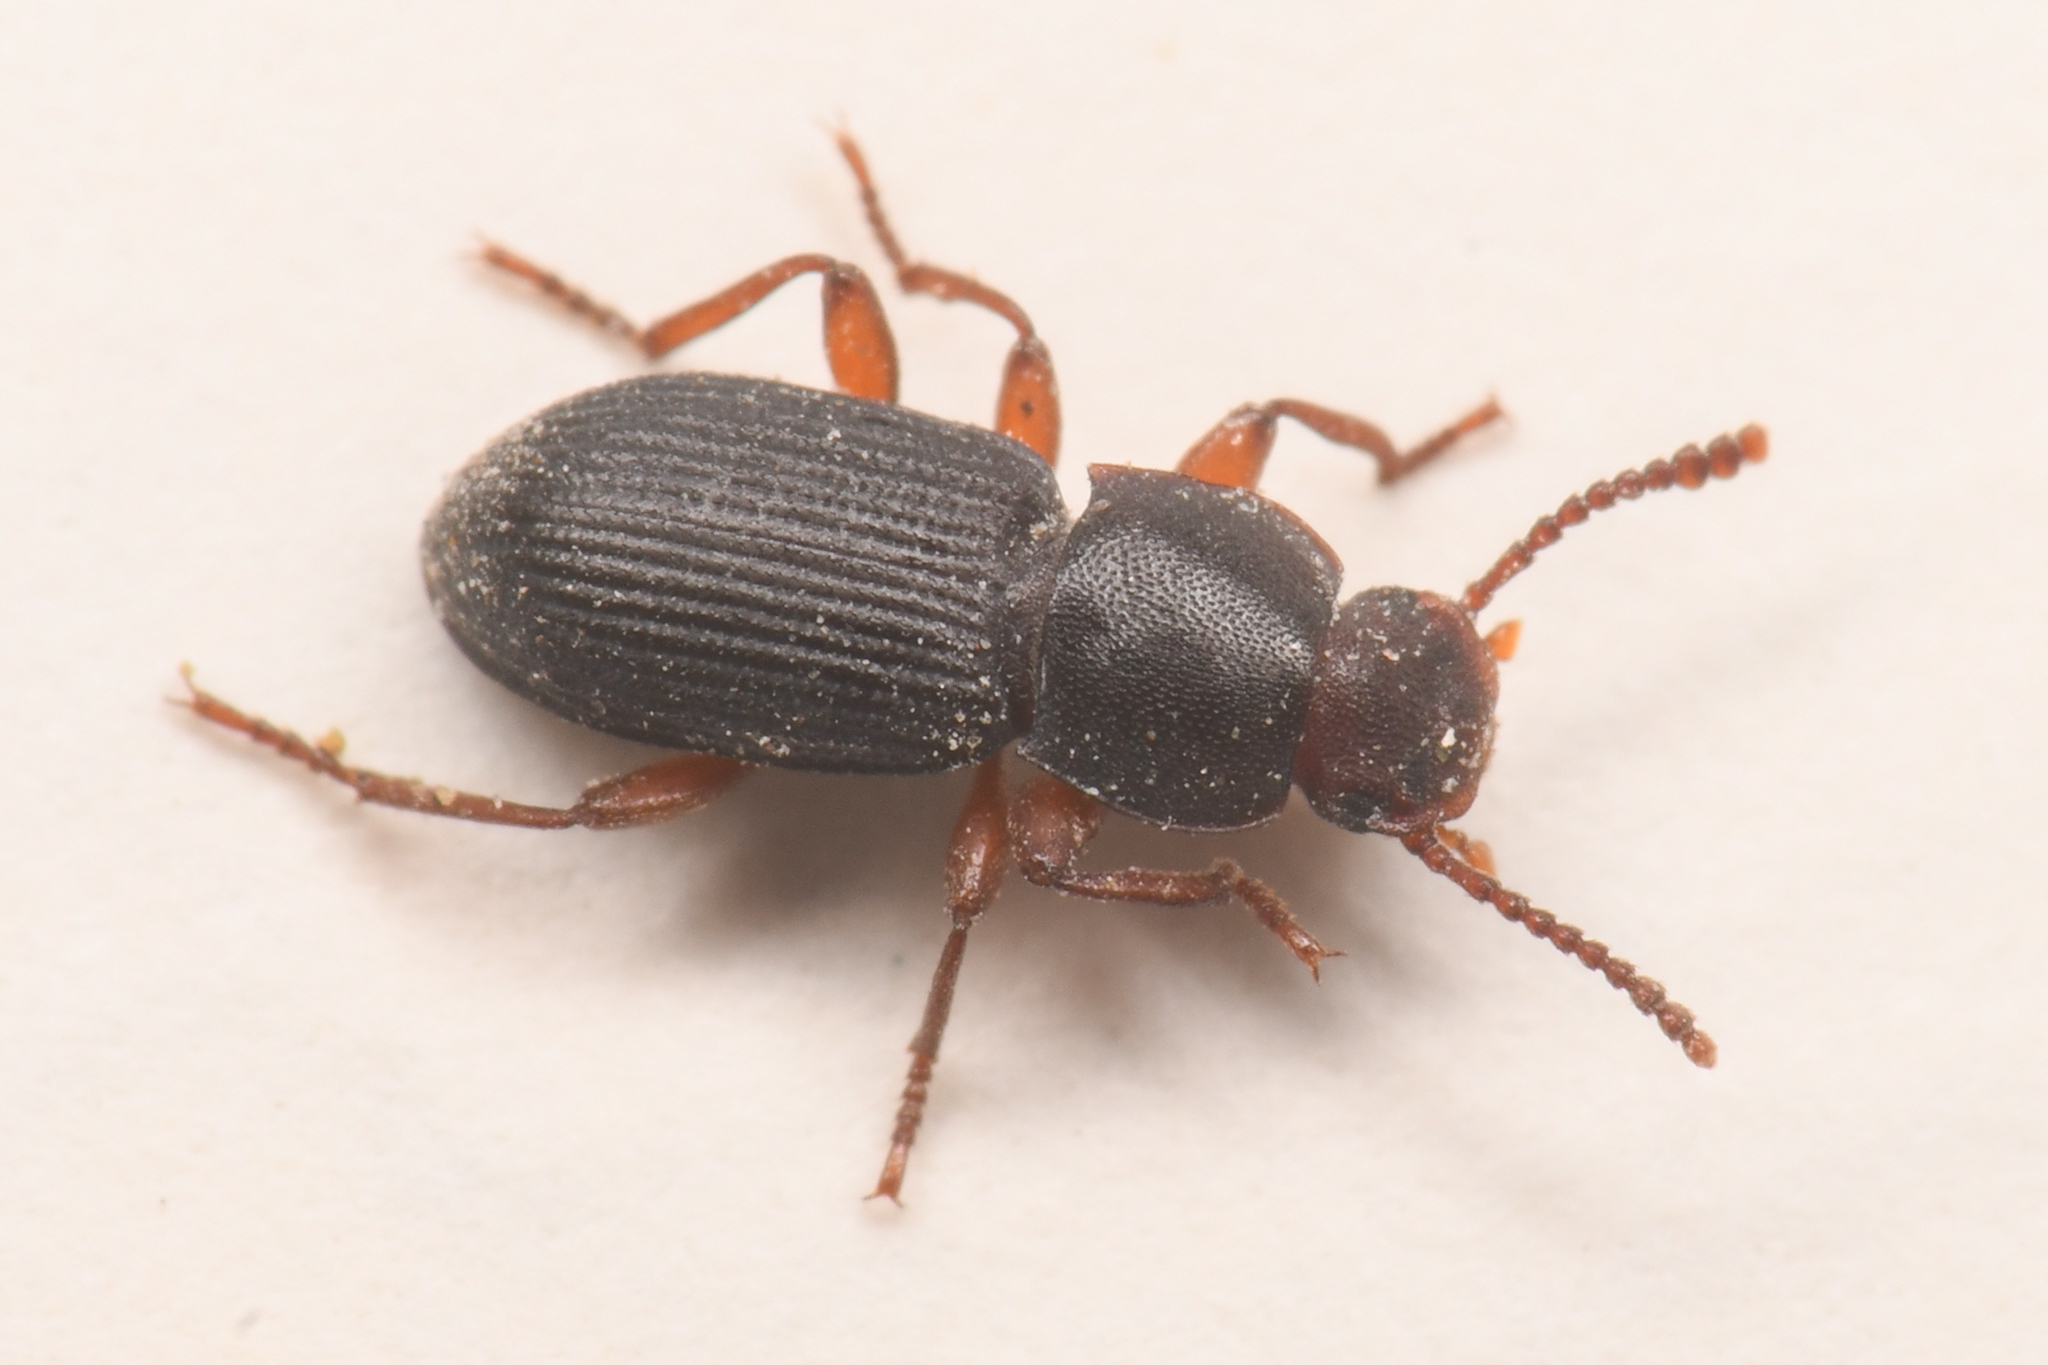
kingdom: Animalia
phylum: Arthropoda
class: Insecta
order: Coleoptera
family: Tenebrionidae
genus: Nocibiotes
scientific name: Nocibiotes granulatus
